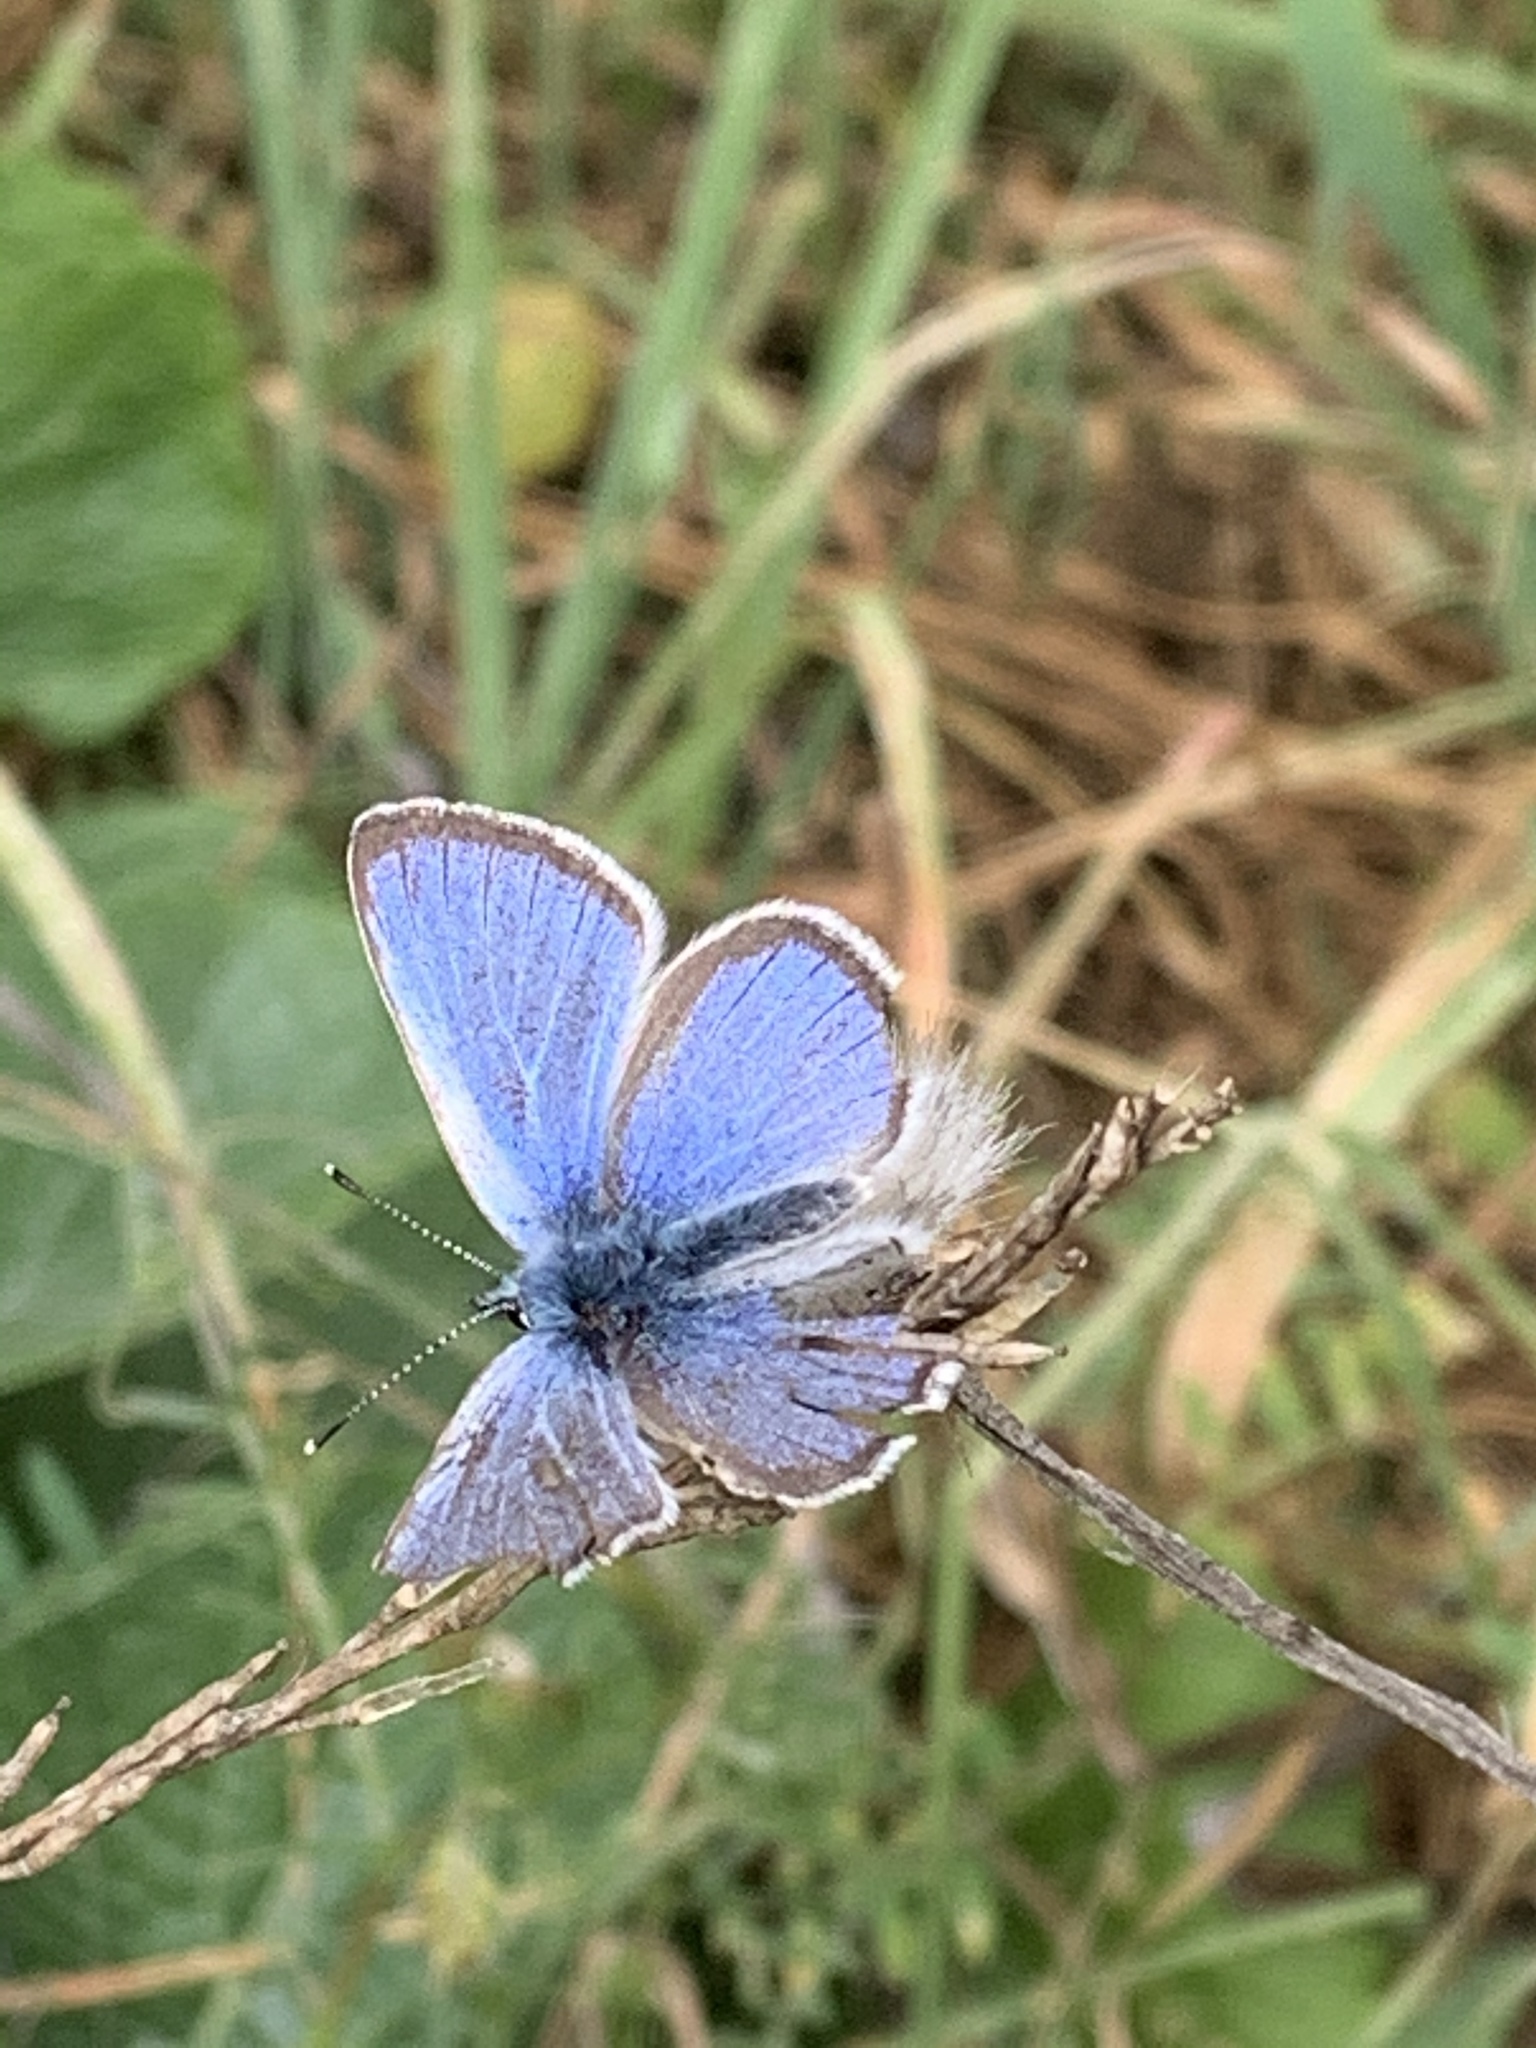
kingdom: Animalia
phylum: Arthropoda
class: Insecta
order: Lepidoptera
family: Lycaenidae
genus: Glaucopsyche
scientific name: Glaucopsyche lygdamus
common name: Silvery blue
